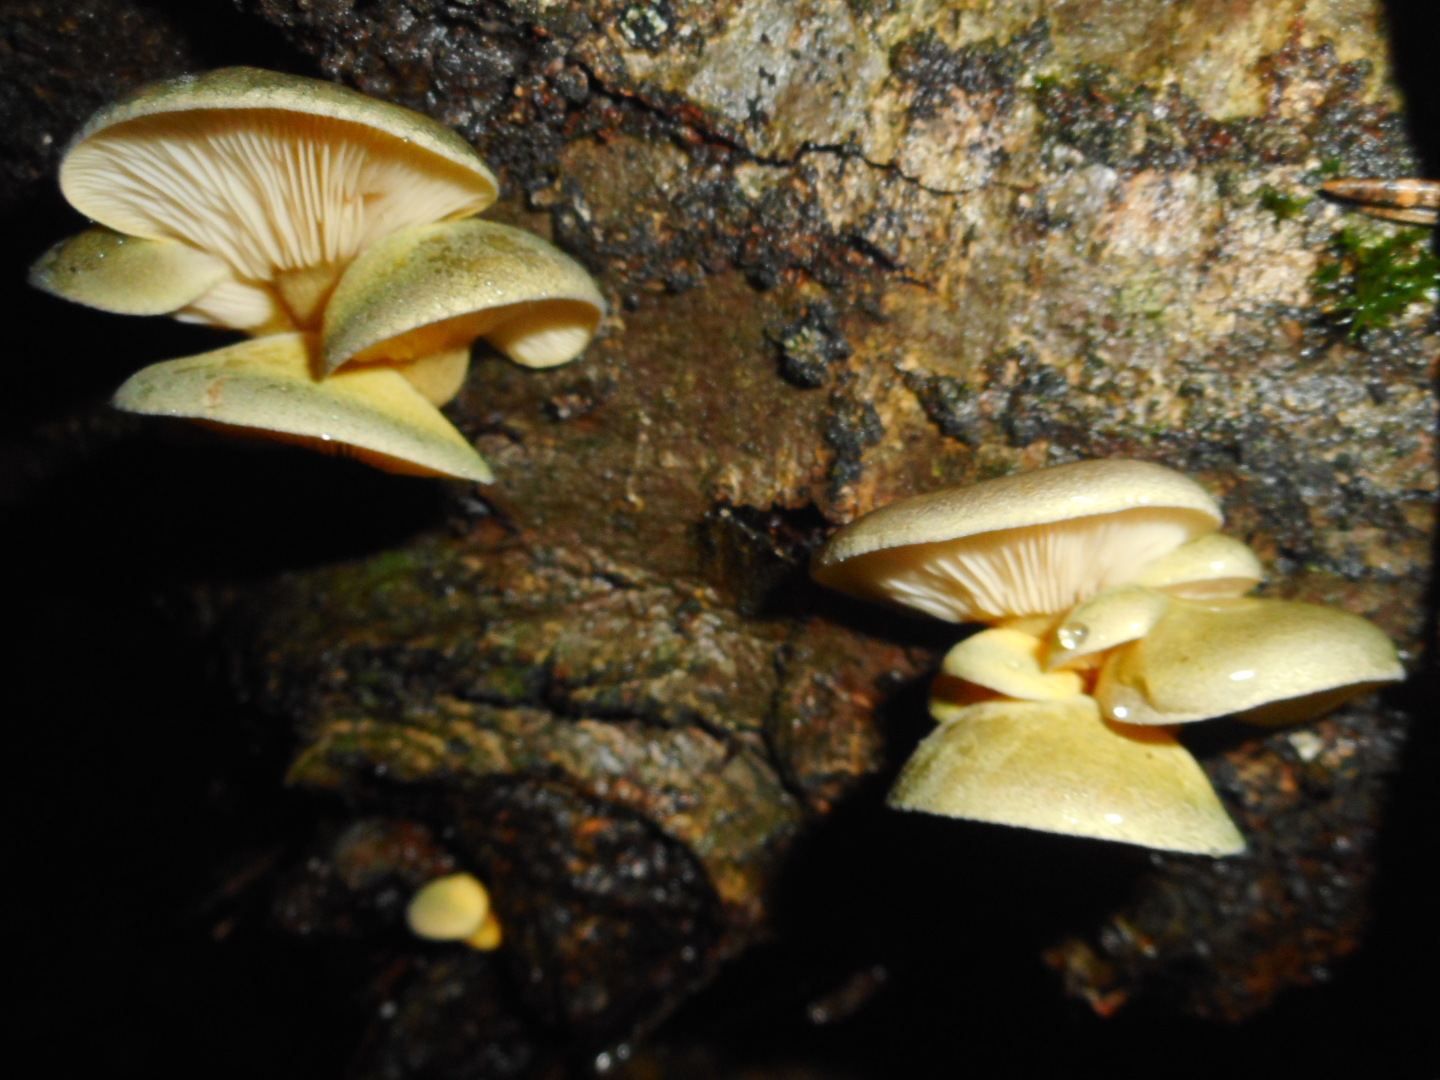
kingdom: Fungi
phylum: Basidiomycota
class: Agaricomycetes
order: Agaricales
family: Sarcomyxaceae
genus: Sarcomyxa
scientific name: Sarcomyxa serotina
